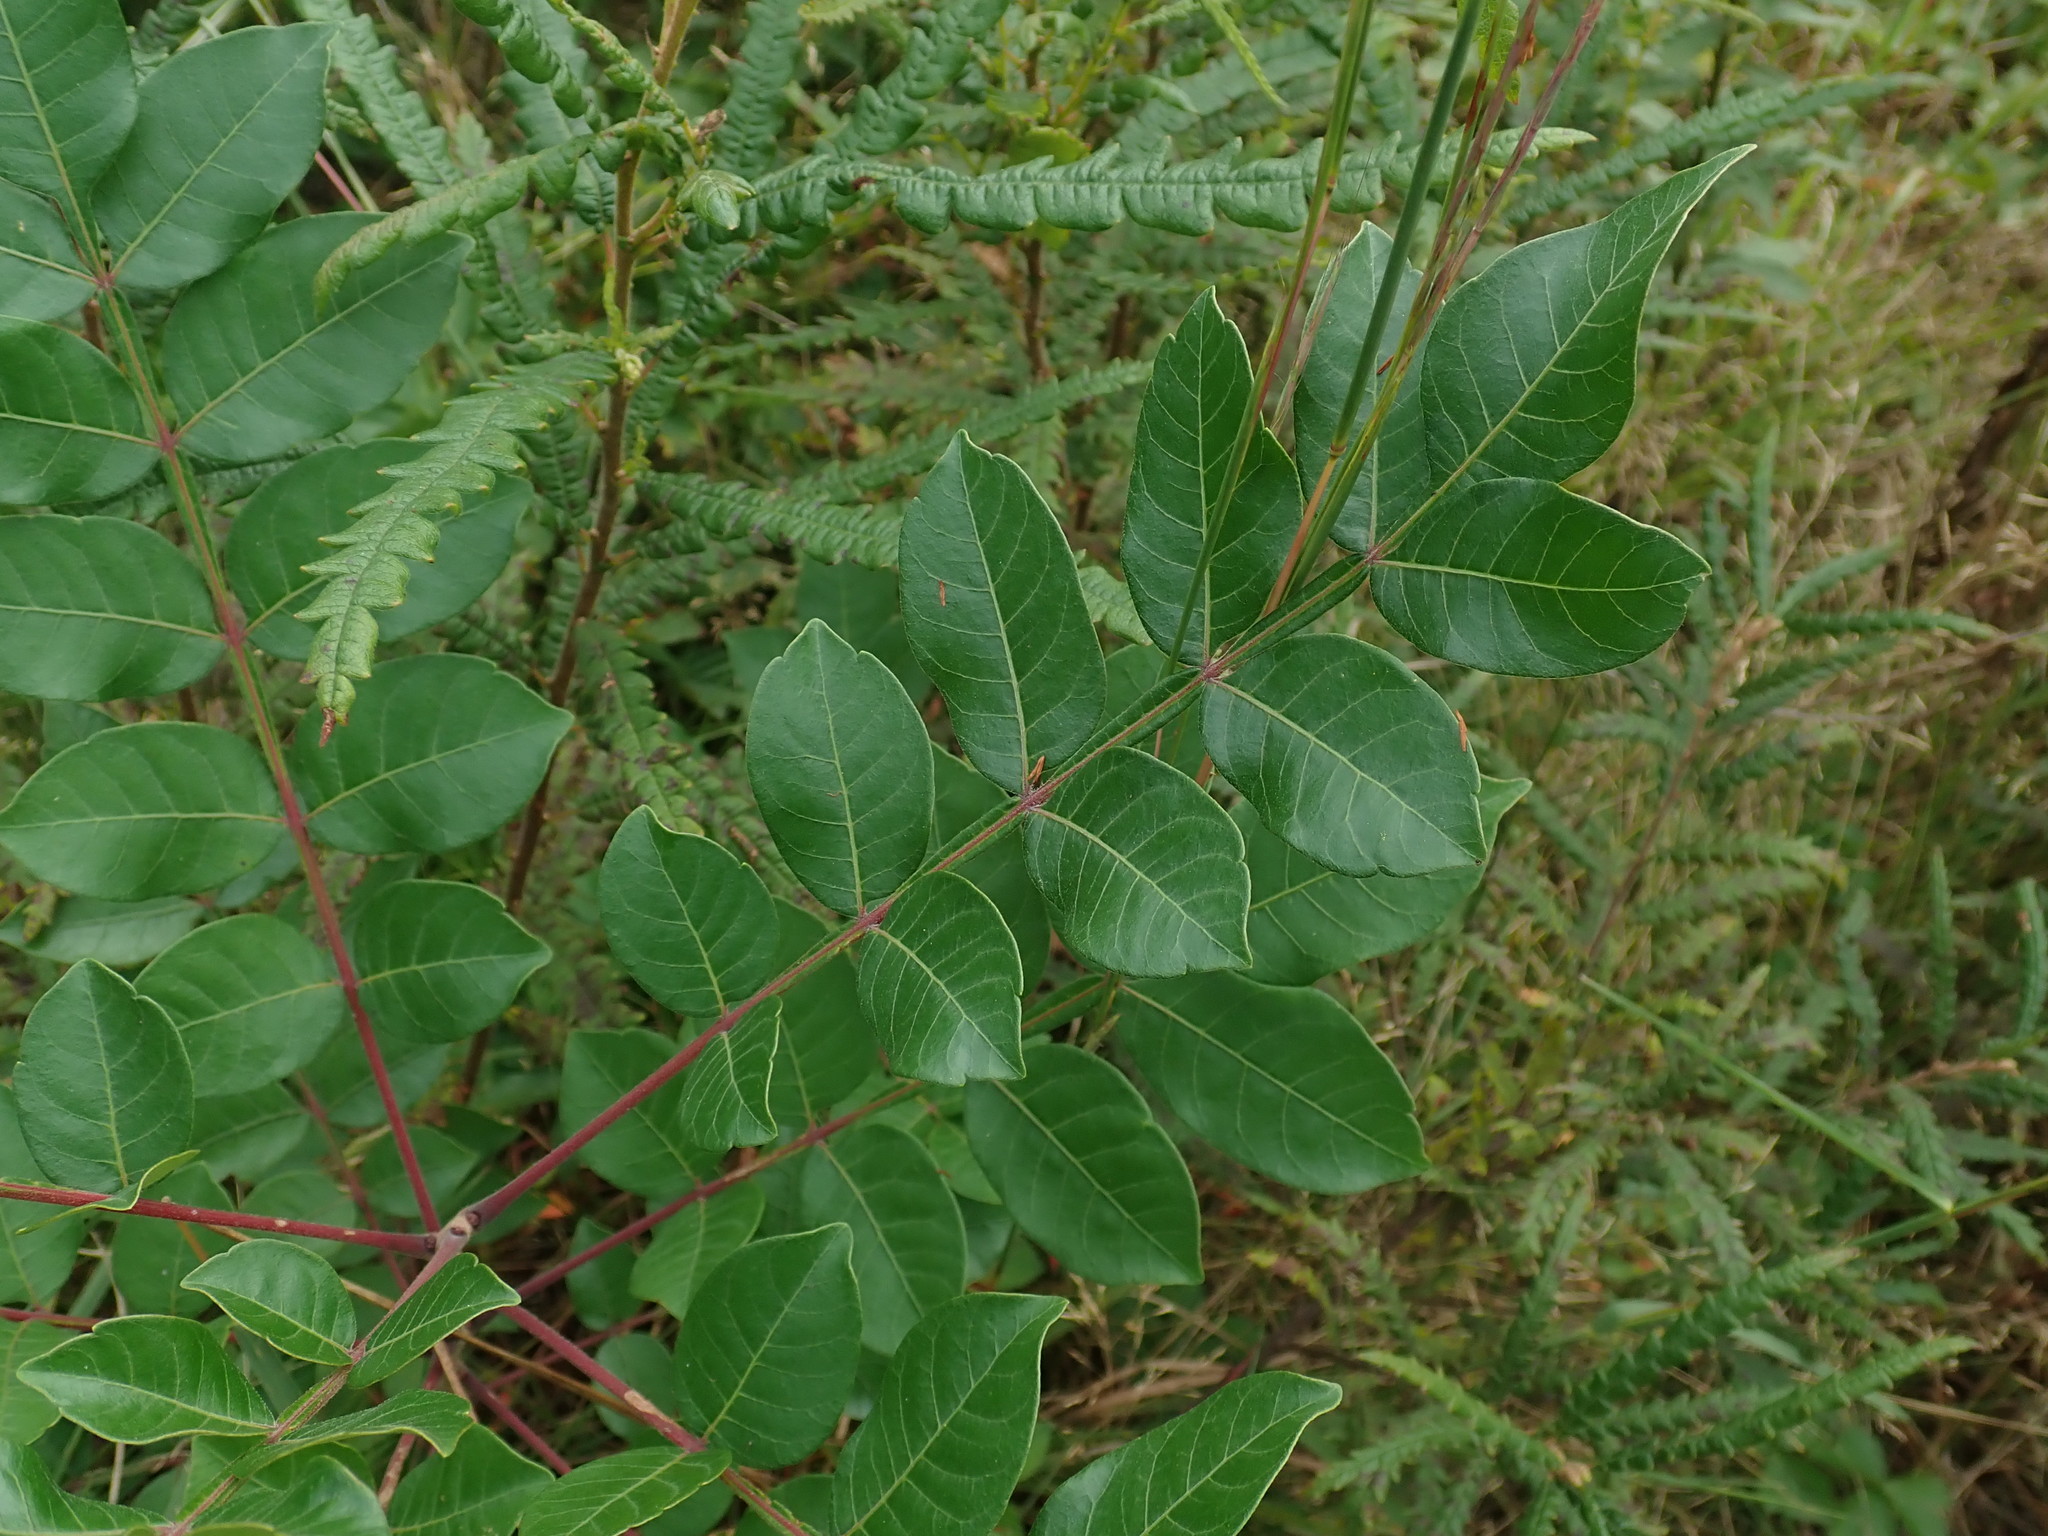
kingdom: Plantae
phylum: Tracheophyta
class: Magnoliopsida
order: Sapindales
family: Anacardiaceae
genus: Rhus
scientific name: Rhus copallina
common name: Shining sumac
